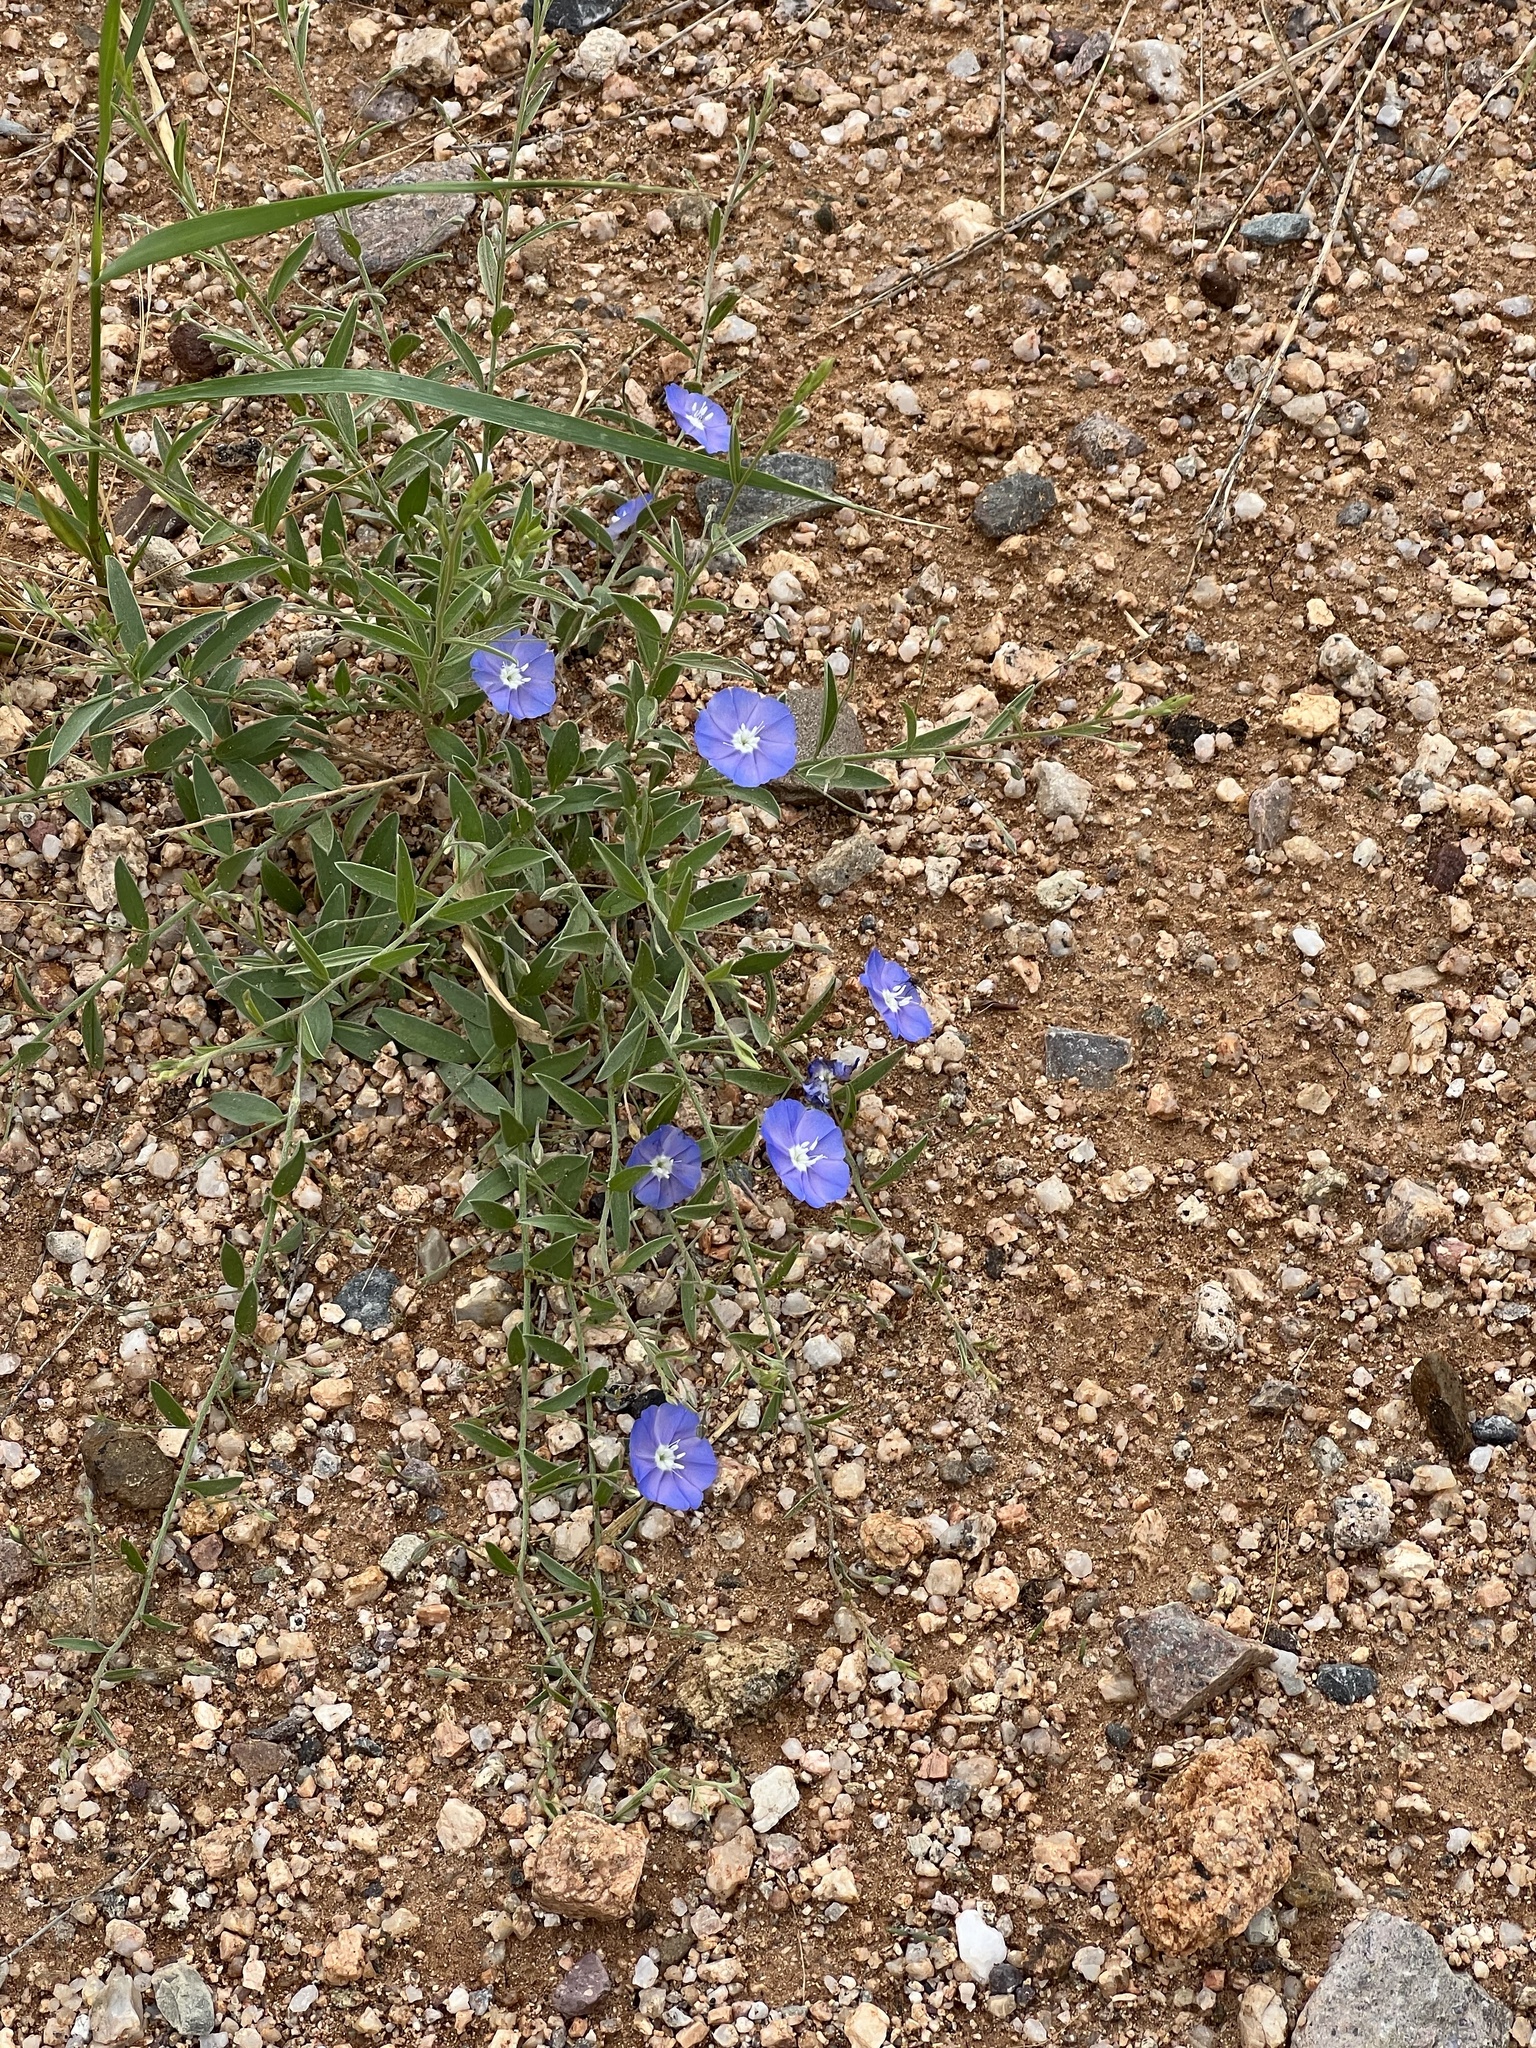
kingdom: Plantae
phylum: Tracheophyta
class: Magnoliopsida
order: Solanales
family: Convolvulaceae
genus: Evolvulus
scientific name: Evolvulus arizonicus
